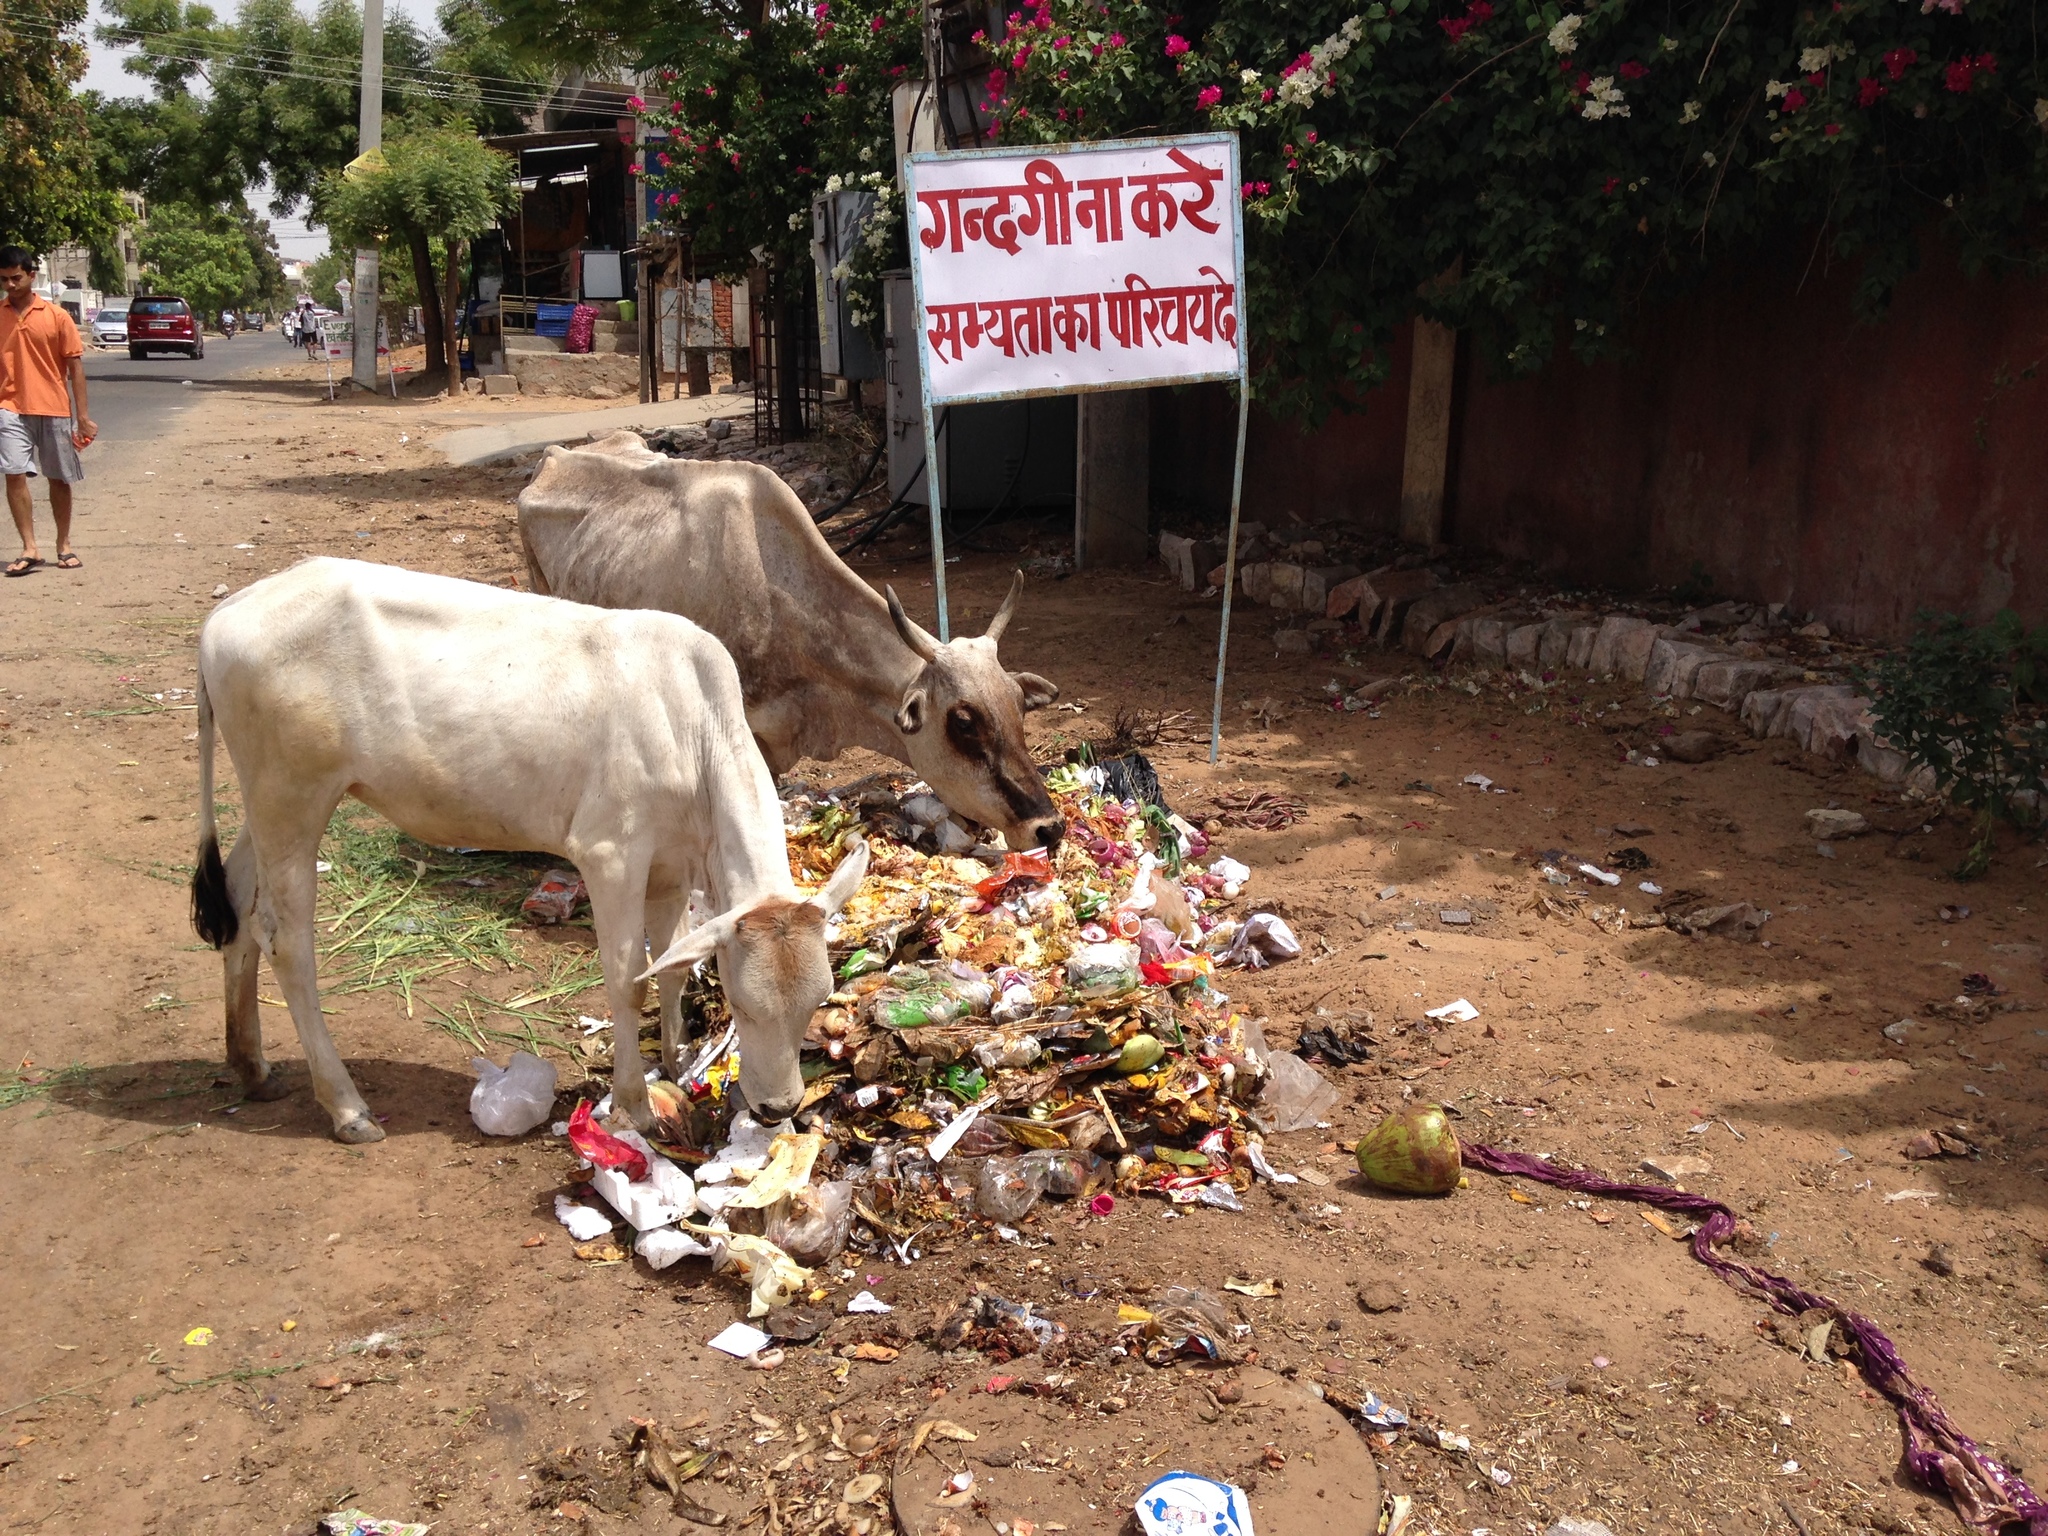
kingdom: Animalia
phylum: Chordata
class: Mammalia
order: Artiodactyla
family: Bovidae
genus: Bos
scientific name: Bos taurus
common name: Domesticated cattle
